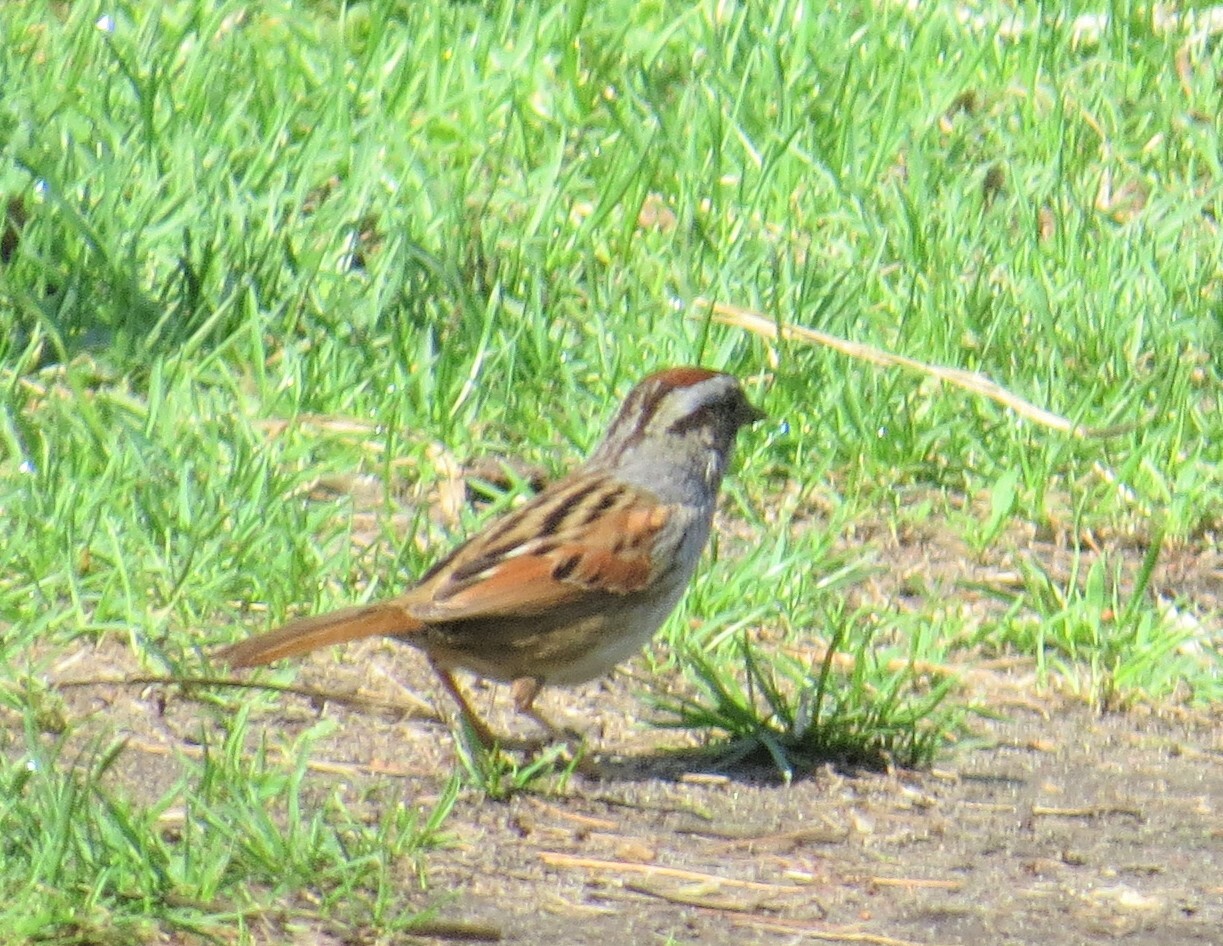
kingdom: Animalia
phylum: Chordata
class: Aves
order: Passeriformes
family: Passerellidae
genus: Melospiza
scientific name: Melospiza georgiana
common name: Swamp sparrow
